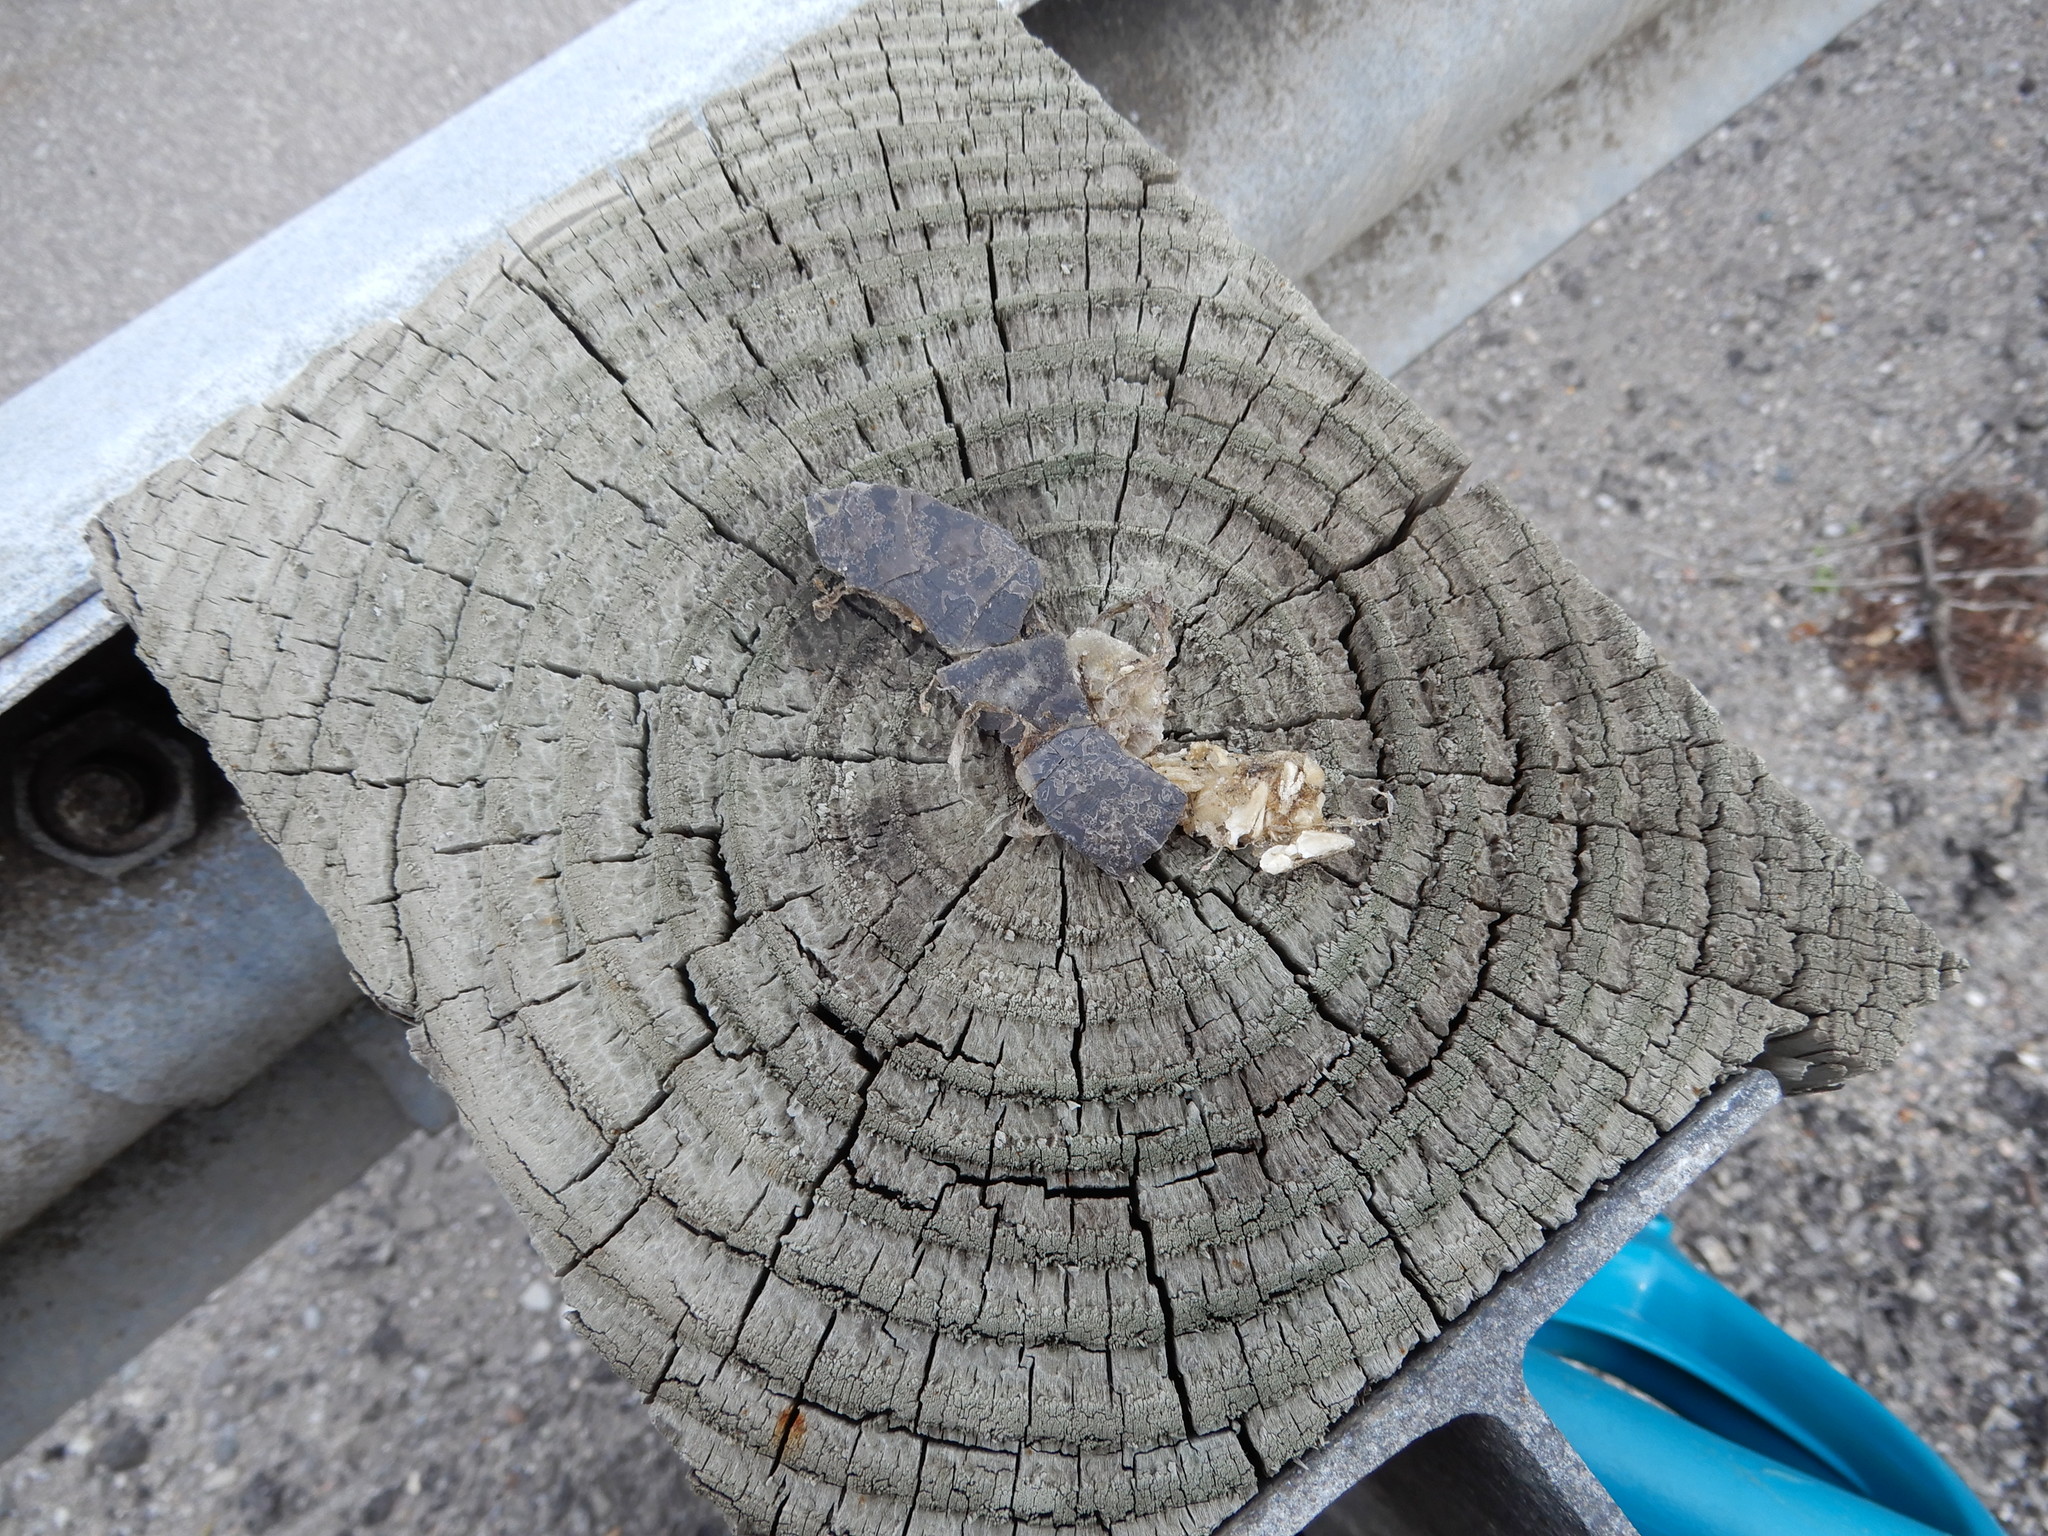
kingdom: Animalia
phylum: Chordata
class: Testudines
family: Emydidae
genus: Emys
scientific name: Emys blandingii
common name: Blanding's turtle
